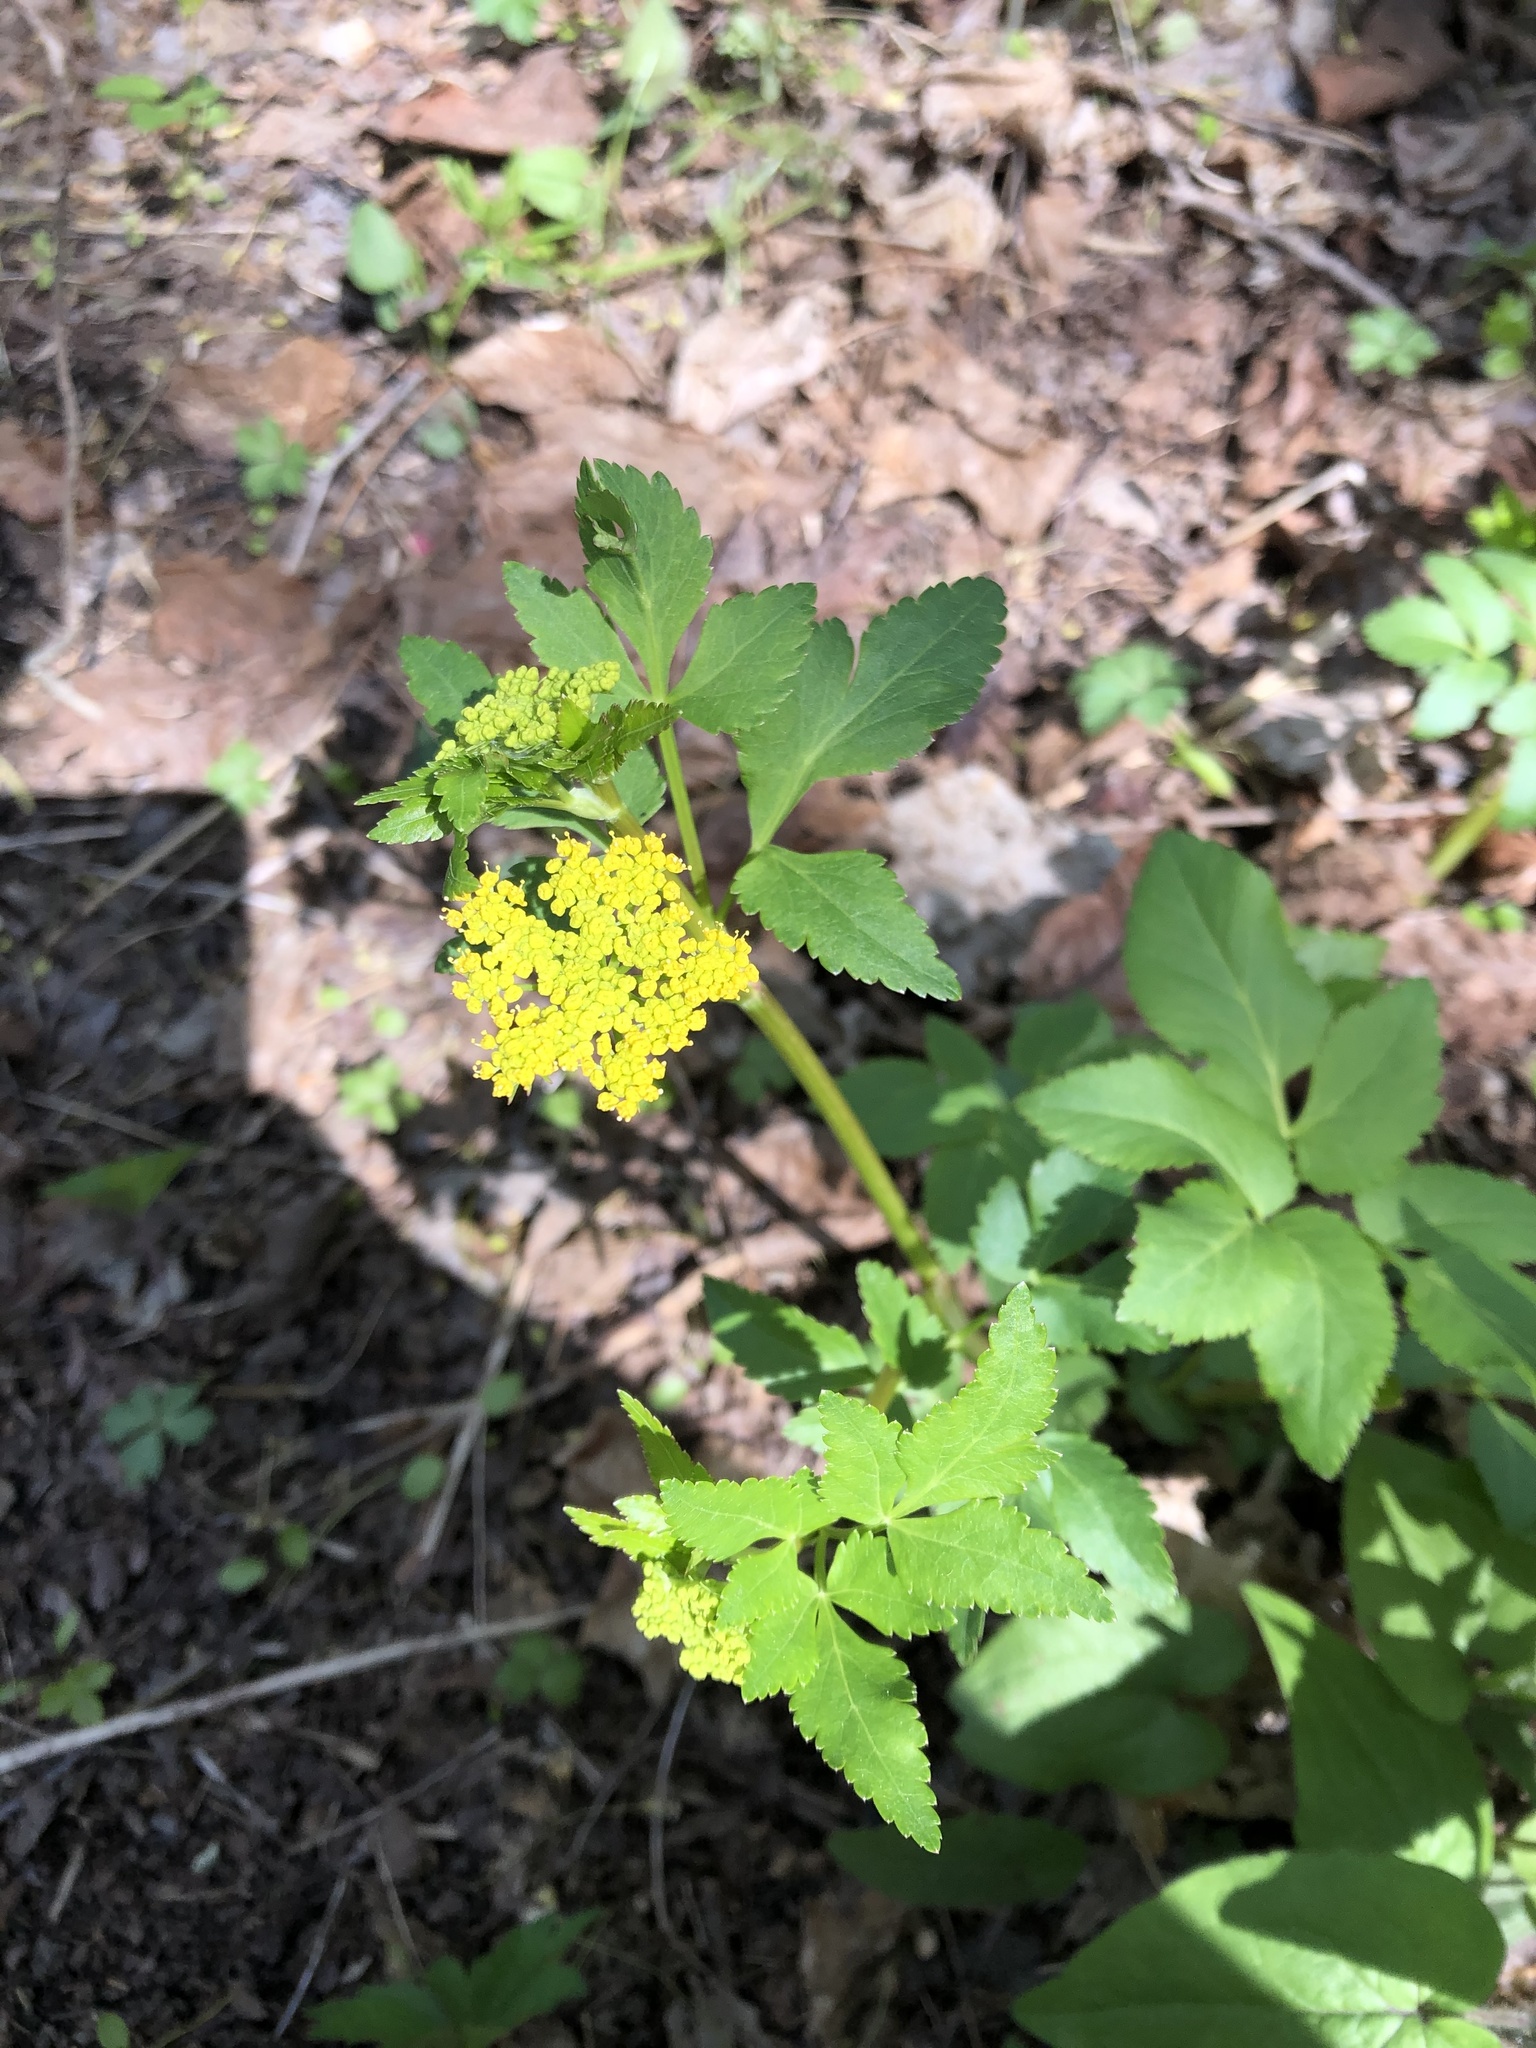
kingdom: Plantae
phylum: Tracheophyta
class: Magnoliopsida
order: Apiales
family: Apiaceae
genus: Zizia
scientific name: Zizia aurea
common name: Golden alexanders
